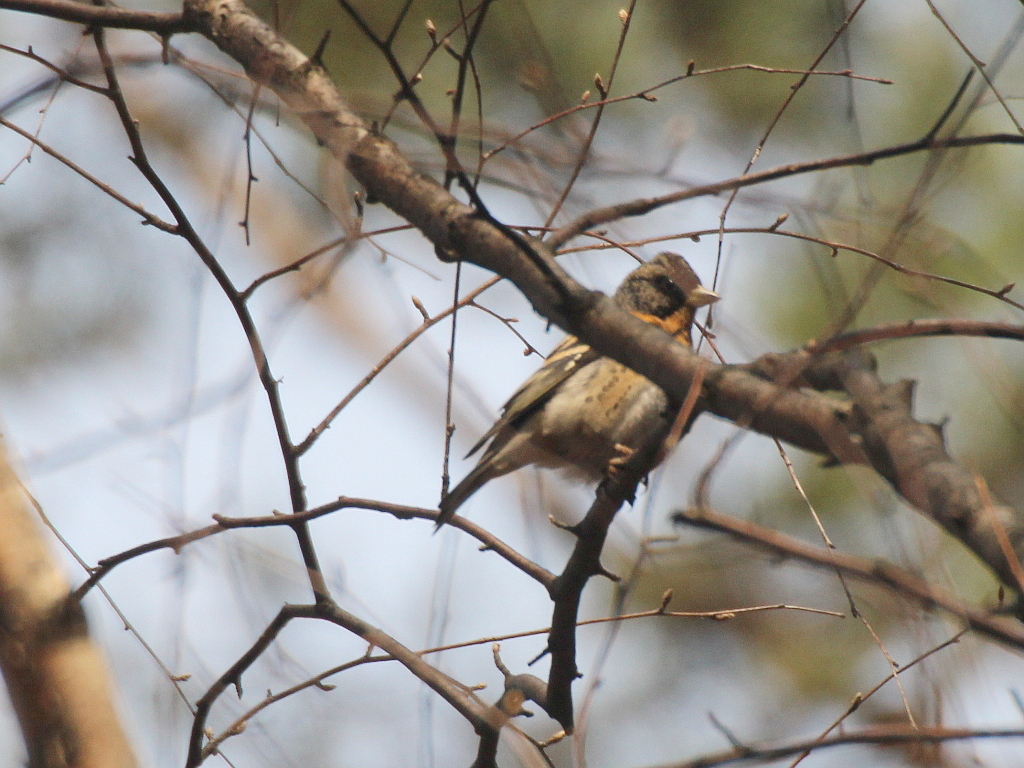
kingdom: Animalia
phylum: Chordata
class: Aves
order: Passeriformes
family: Fringillidae
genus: Fringilla
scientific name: Fringilla montifringilla
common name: Brambling
